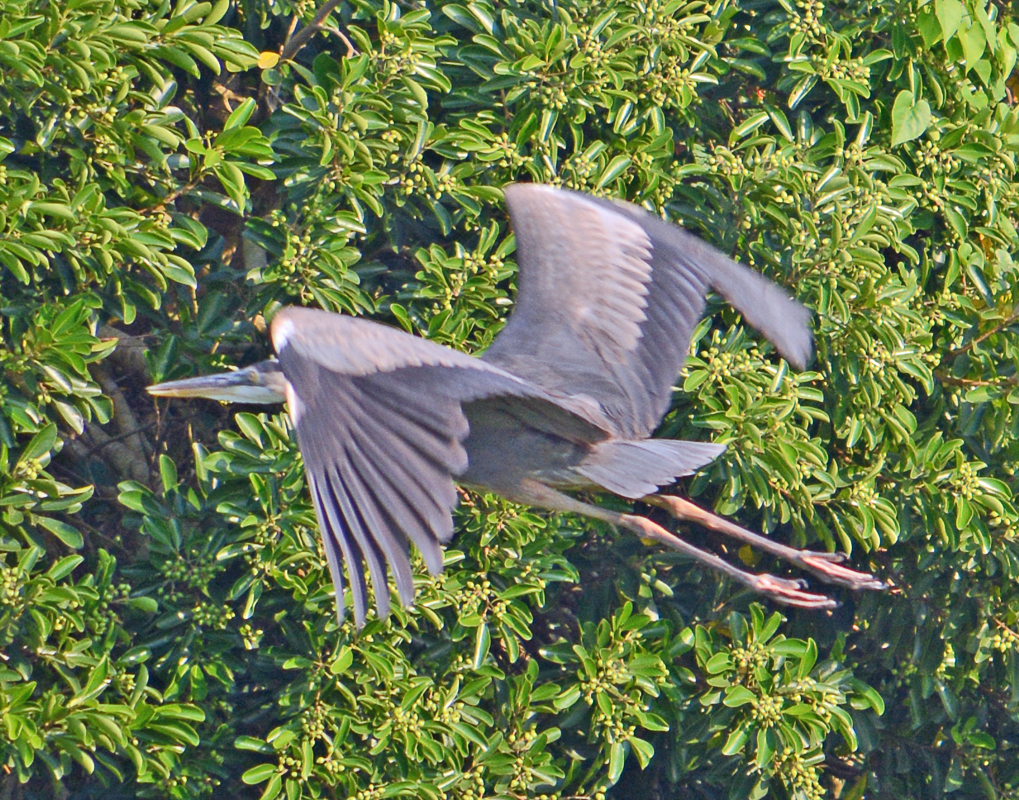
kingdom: Animalia
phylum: Chordata
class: Aves
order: Pelecaniformes
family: Ardeidae
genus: Ardea
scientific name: Ardea herodias
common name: Great blue heron
